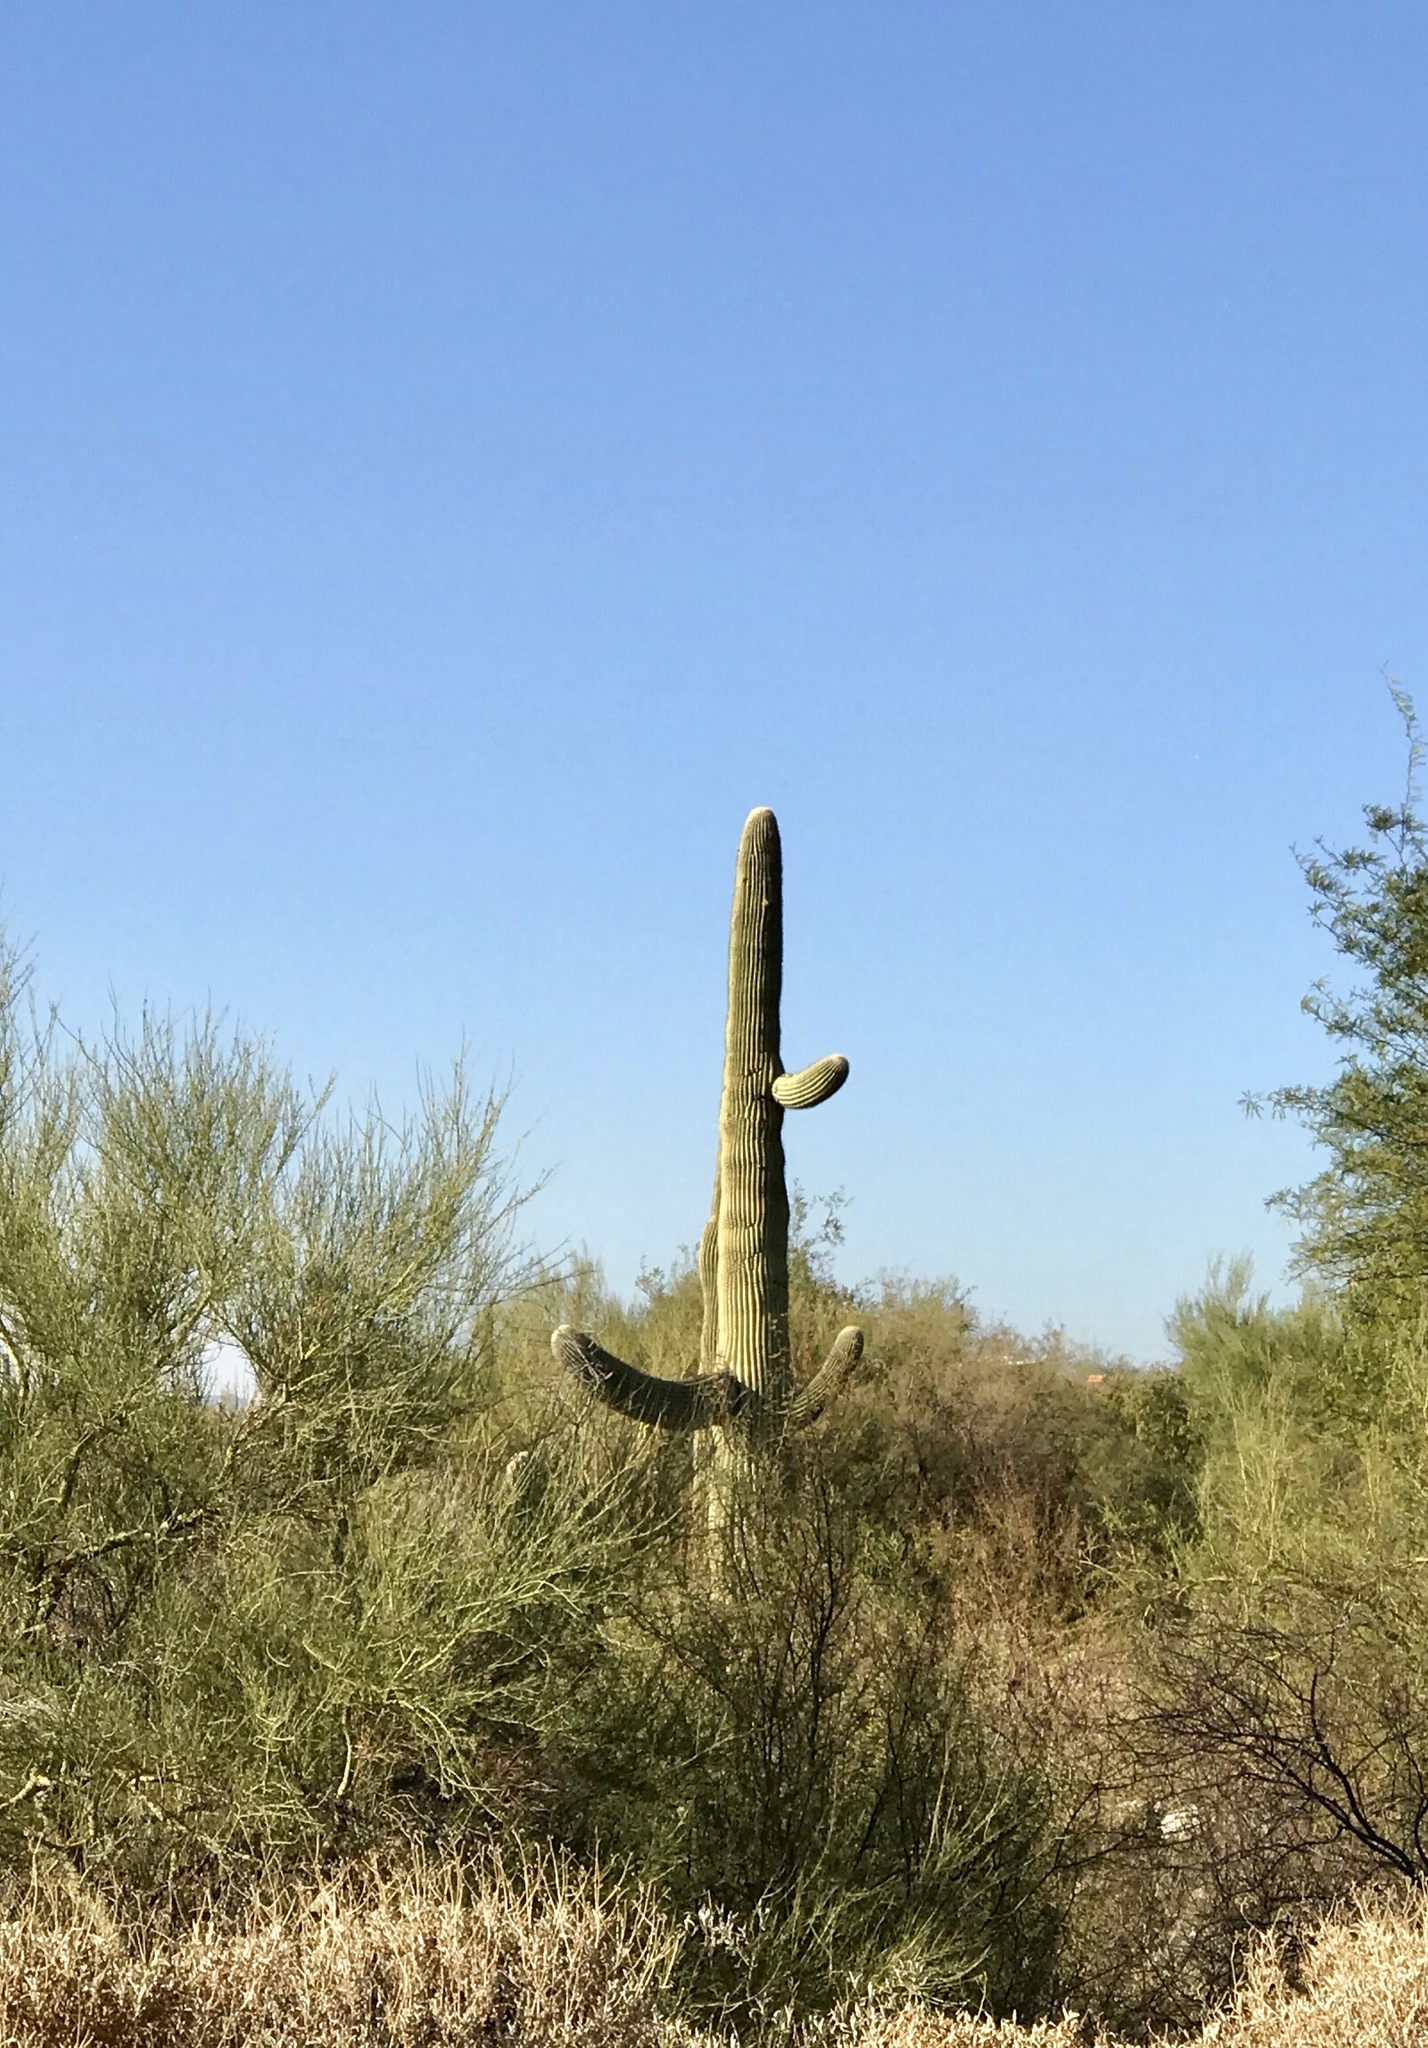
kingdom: Plantae
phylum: Tracheophyta
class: Magnoliopsida
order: Caryophyllales
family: Cactaceae
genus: Carnegiea
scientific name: Carnegiea gigantea
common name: Saguaro
